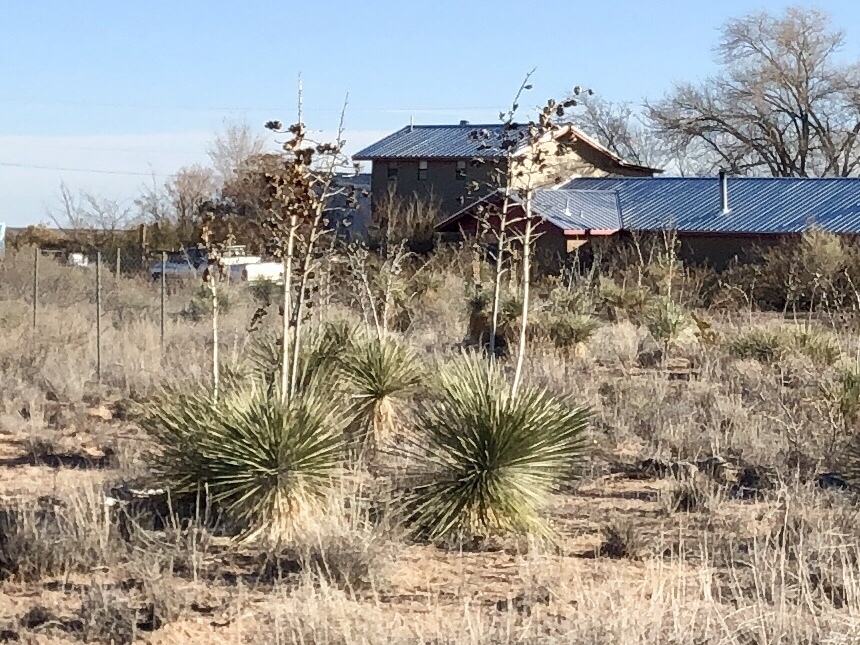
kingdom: Plantae
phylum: Tracheophyta
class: Liliopsida
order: Asparagales
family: Asparagaceae
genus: Yucca
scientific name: Yucca elata
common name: Palmella
